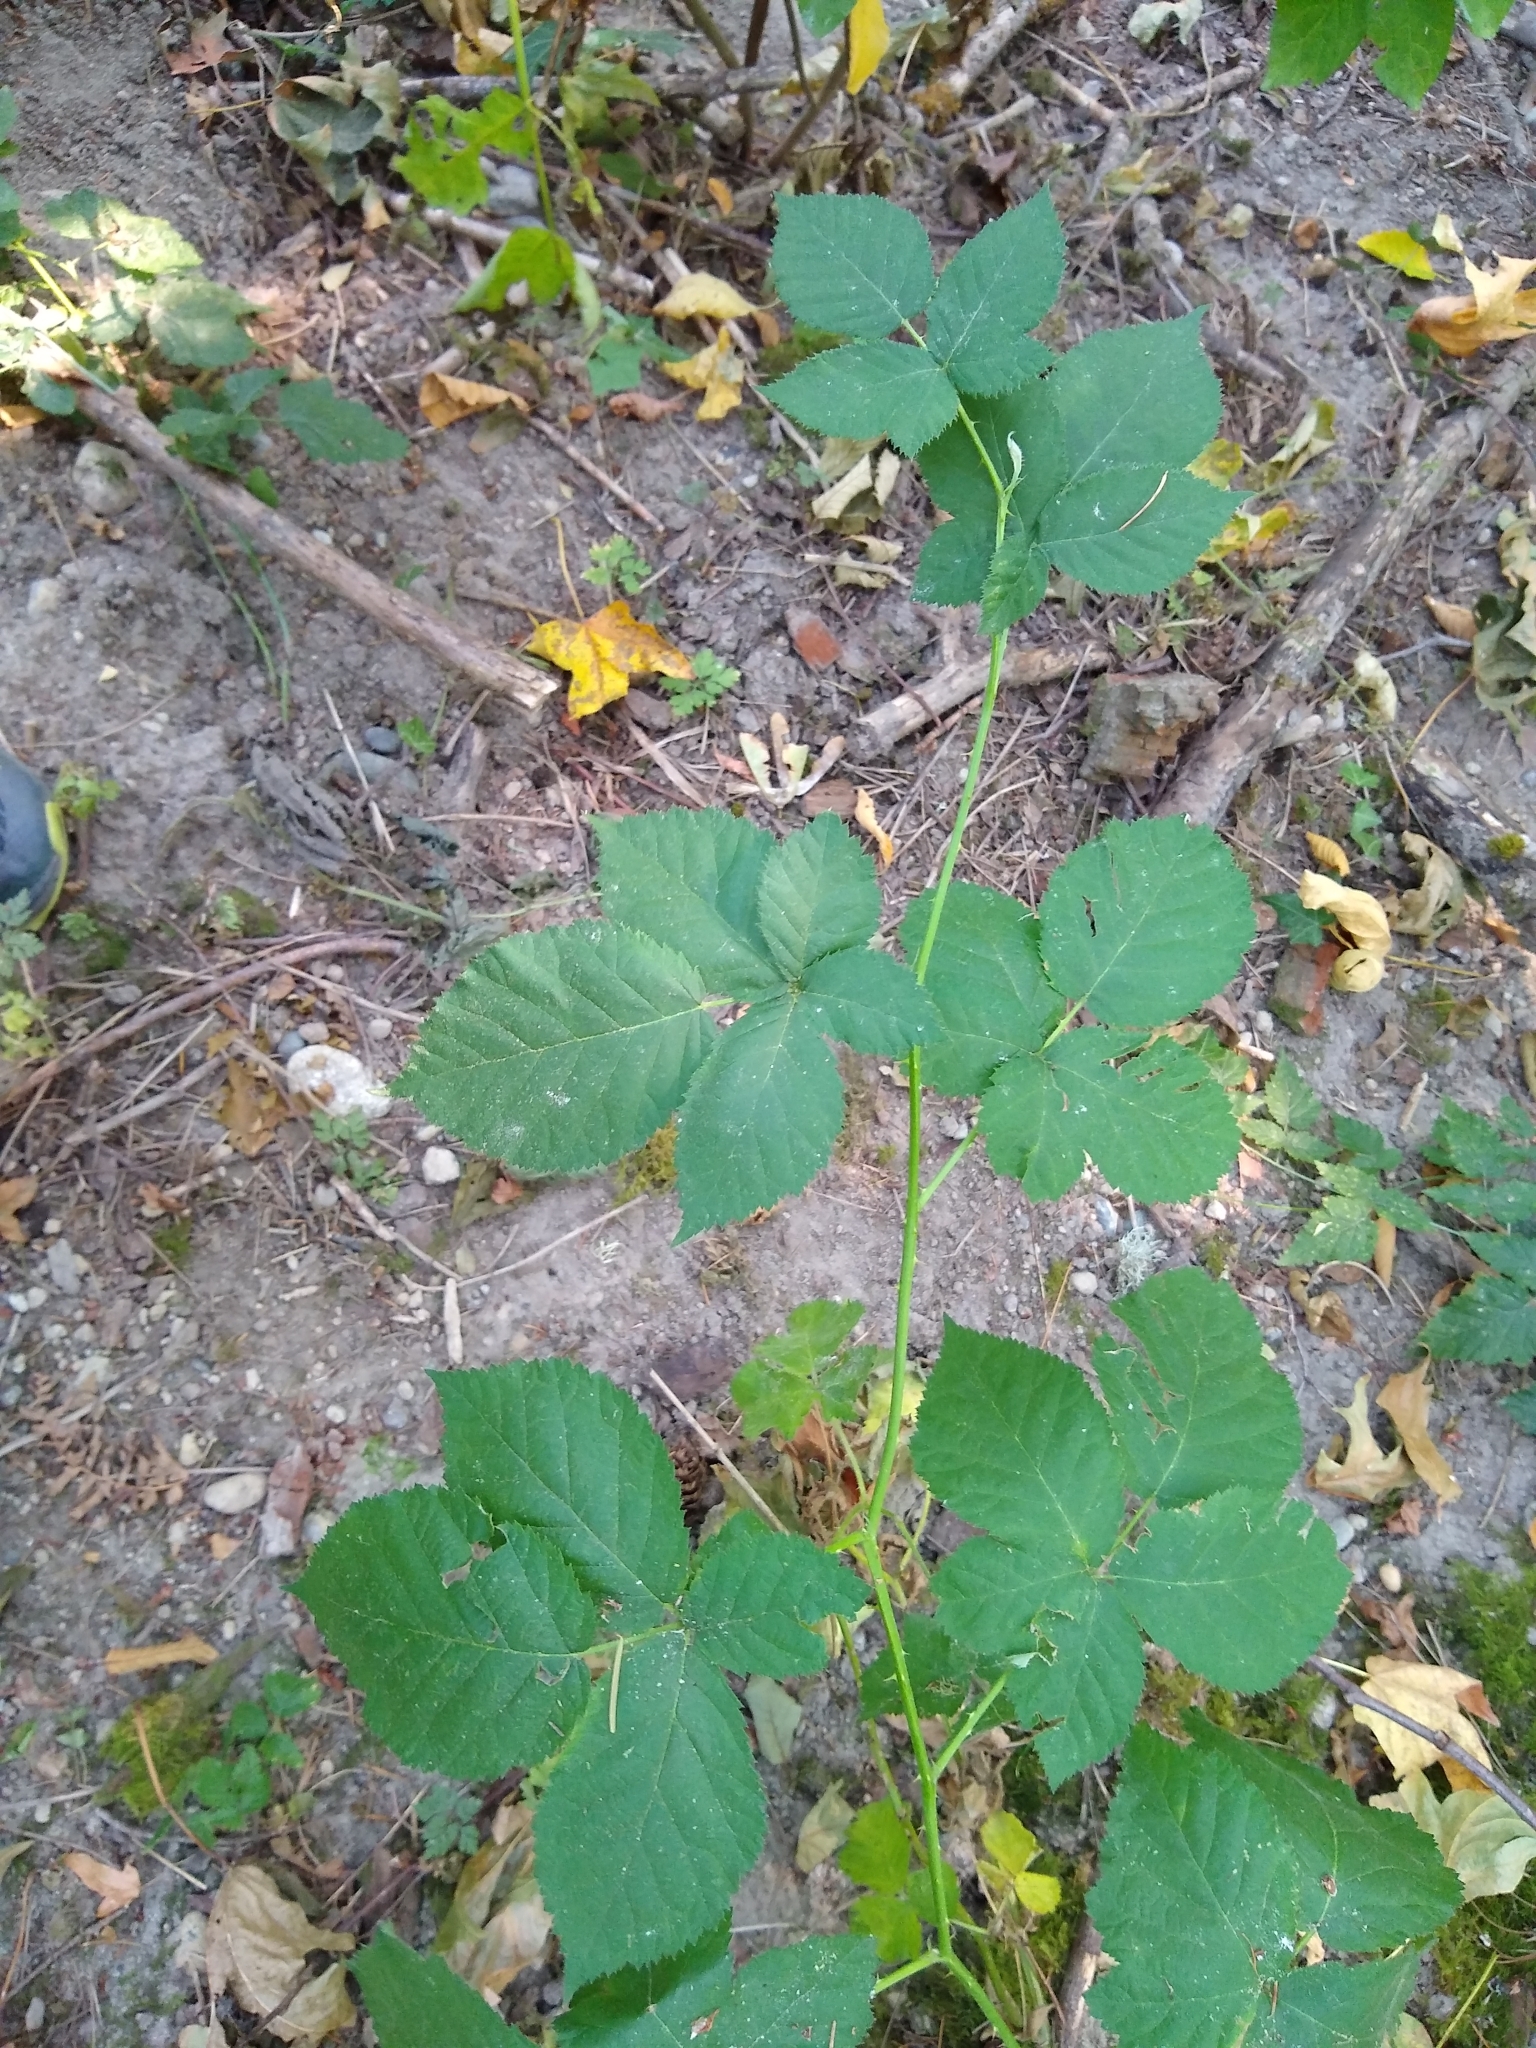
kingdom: Plantae
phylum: Tracheophyta
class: Magnoliopsida
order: Rosales
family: Rosaceae
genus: Rubus
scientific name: Rubus bifrons
